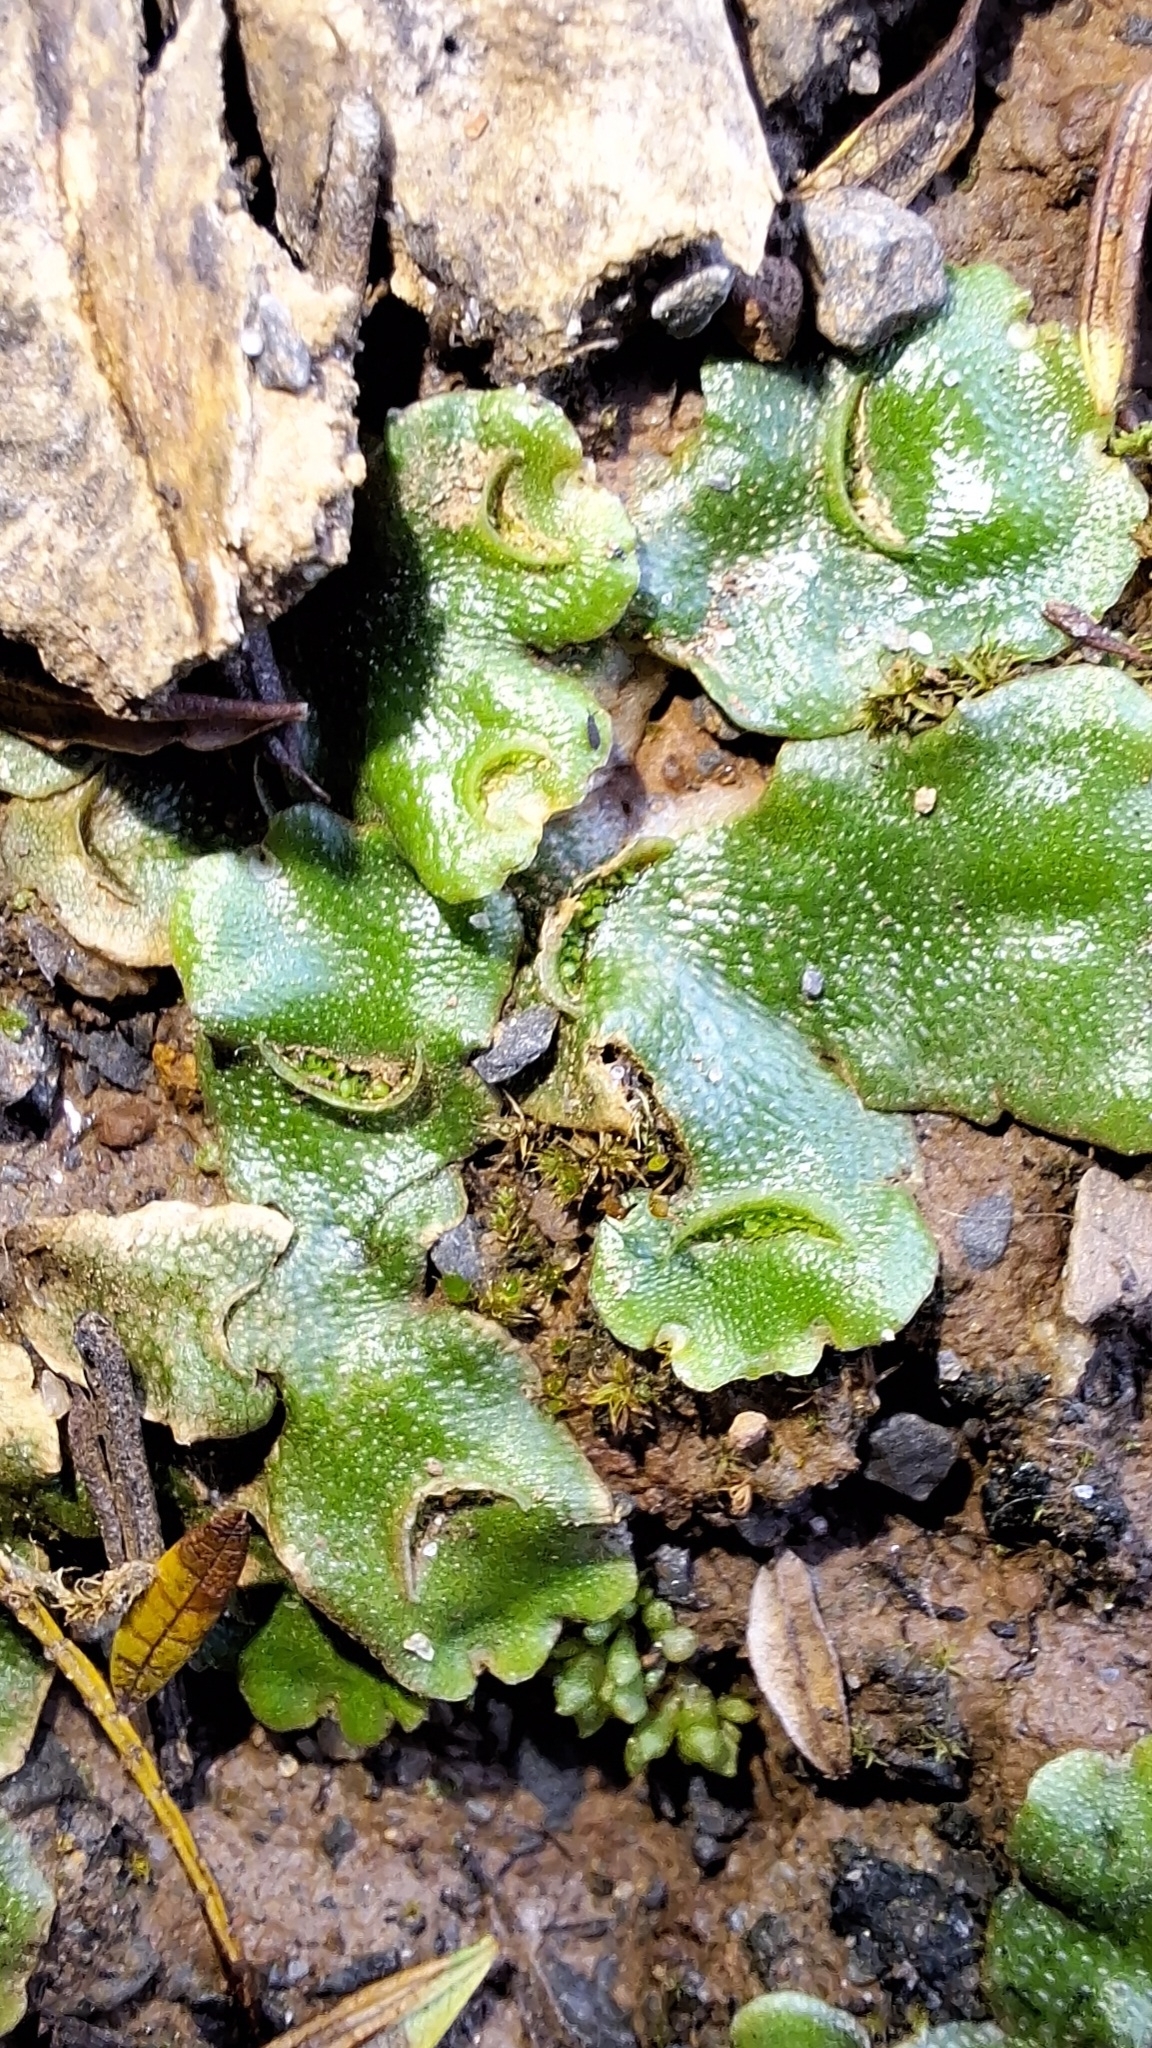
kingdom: Plantae
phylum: Marchantiophyta
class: Marchantiopsida
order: Lunulariales
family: Lunulariaceae
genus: Lunularia
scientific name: Lunularia cruciata
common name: Crescent-cup liverwort
